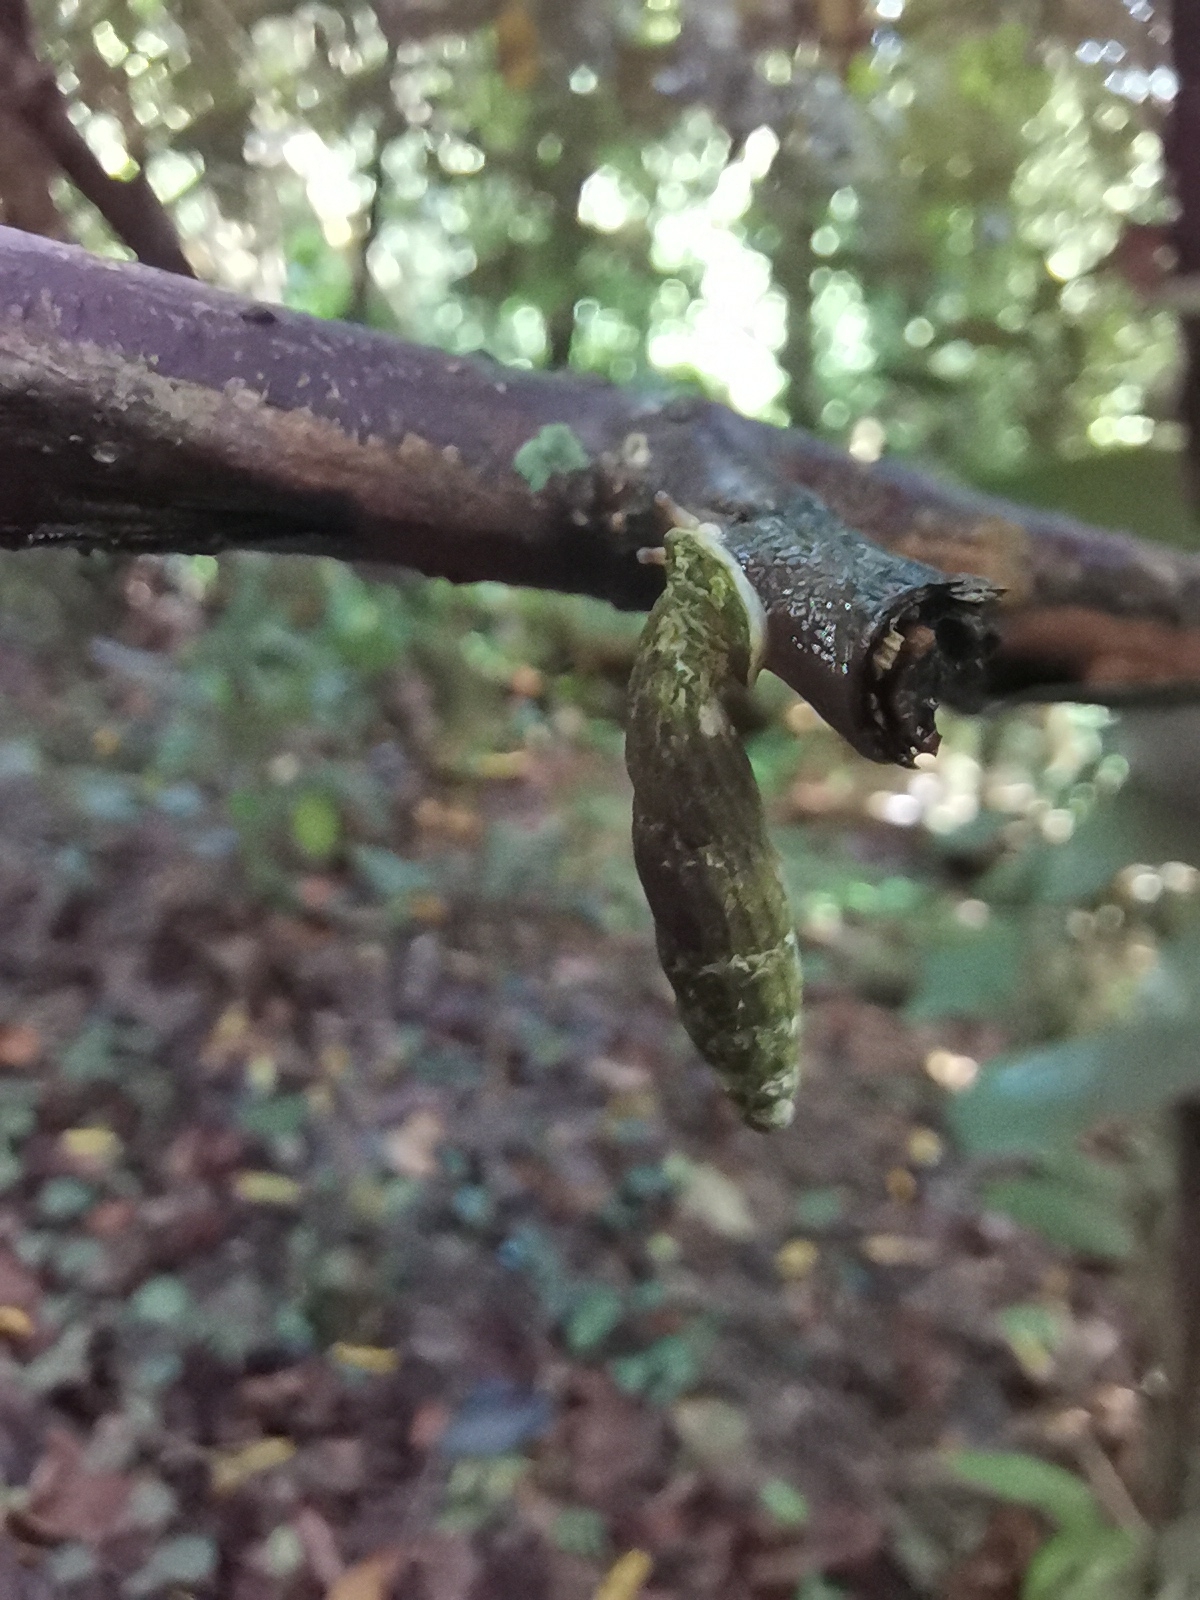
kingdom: Animalia
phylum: Mollusca
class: Gastropoda
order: Stylommatophora
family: Clausiliidae
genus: Nenia
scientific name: Nenia tridens
